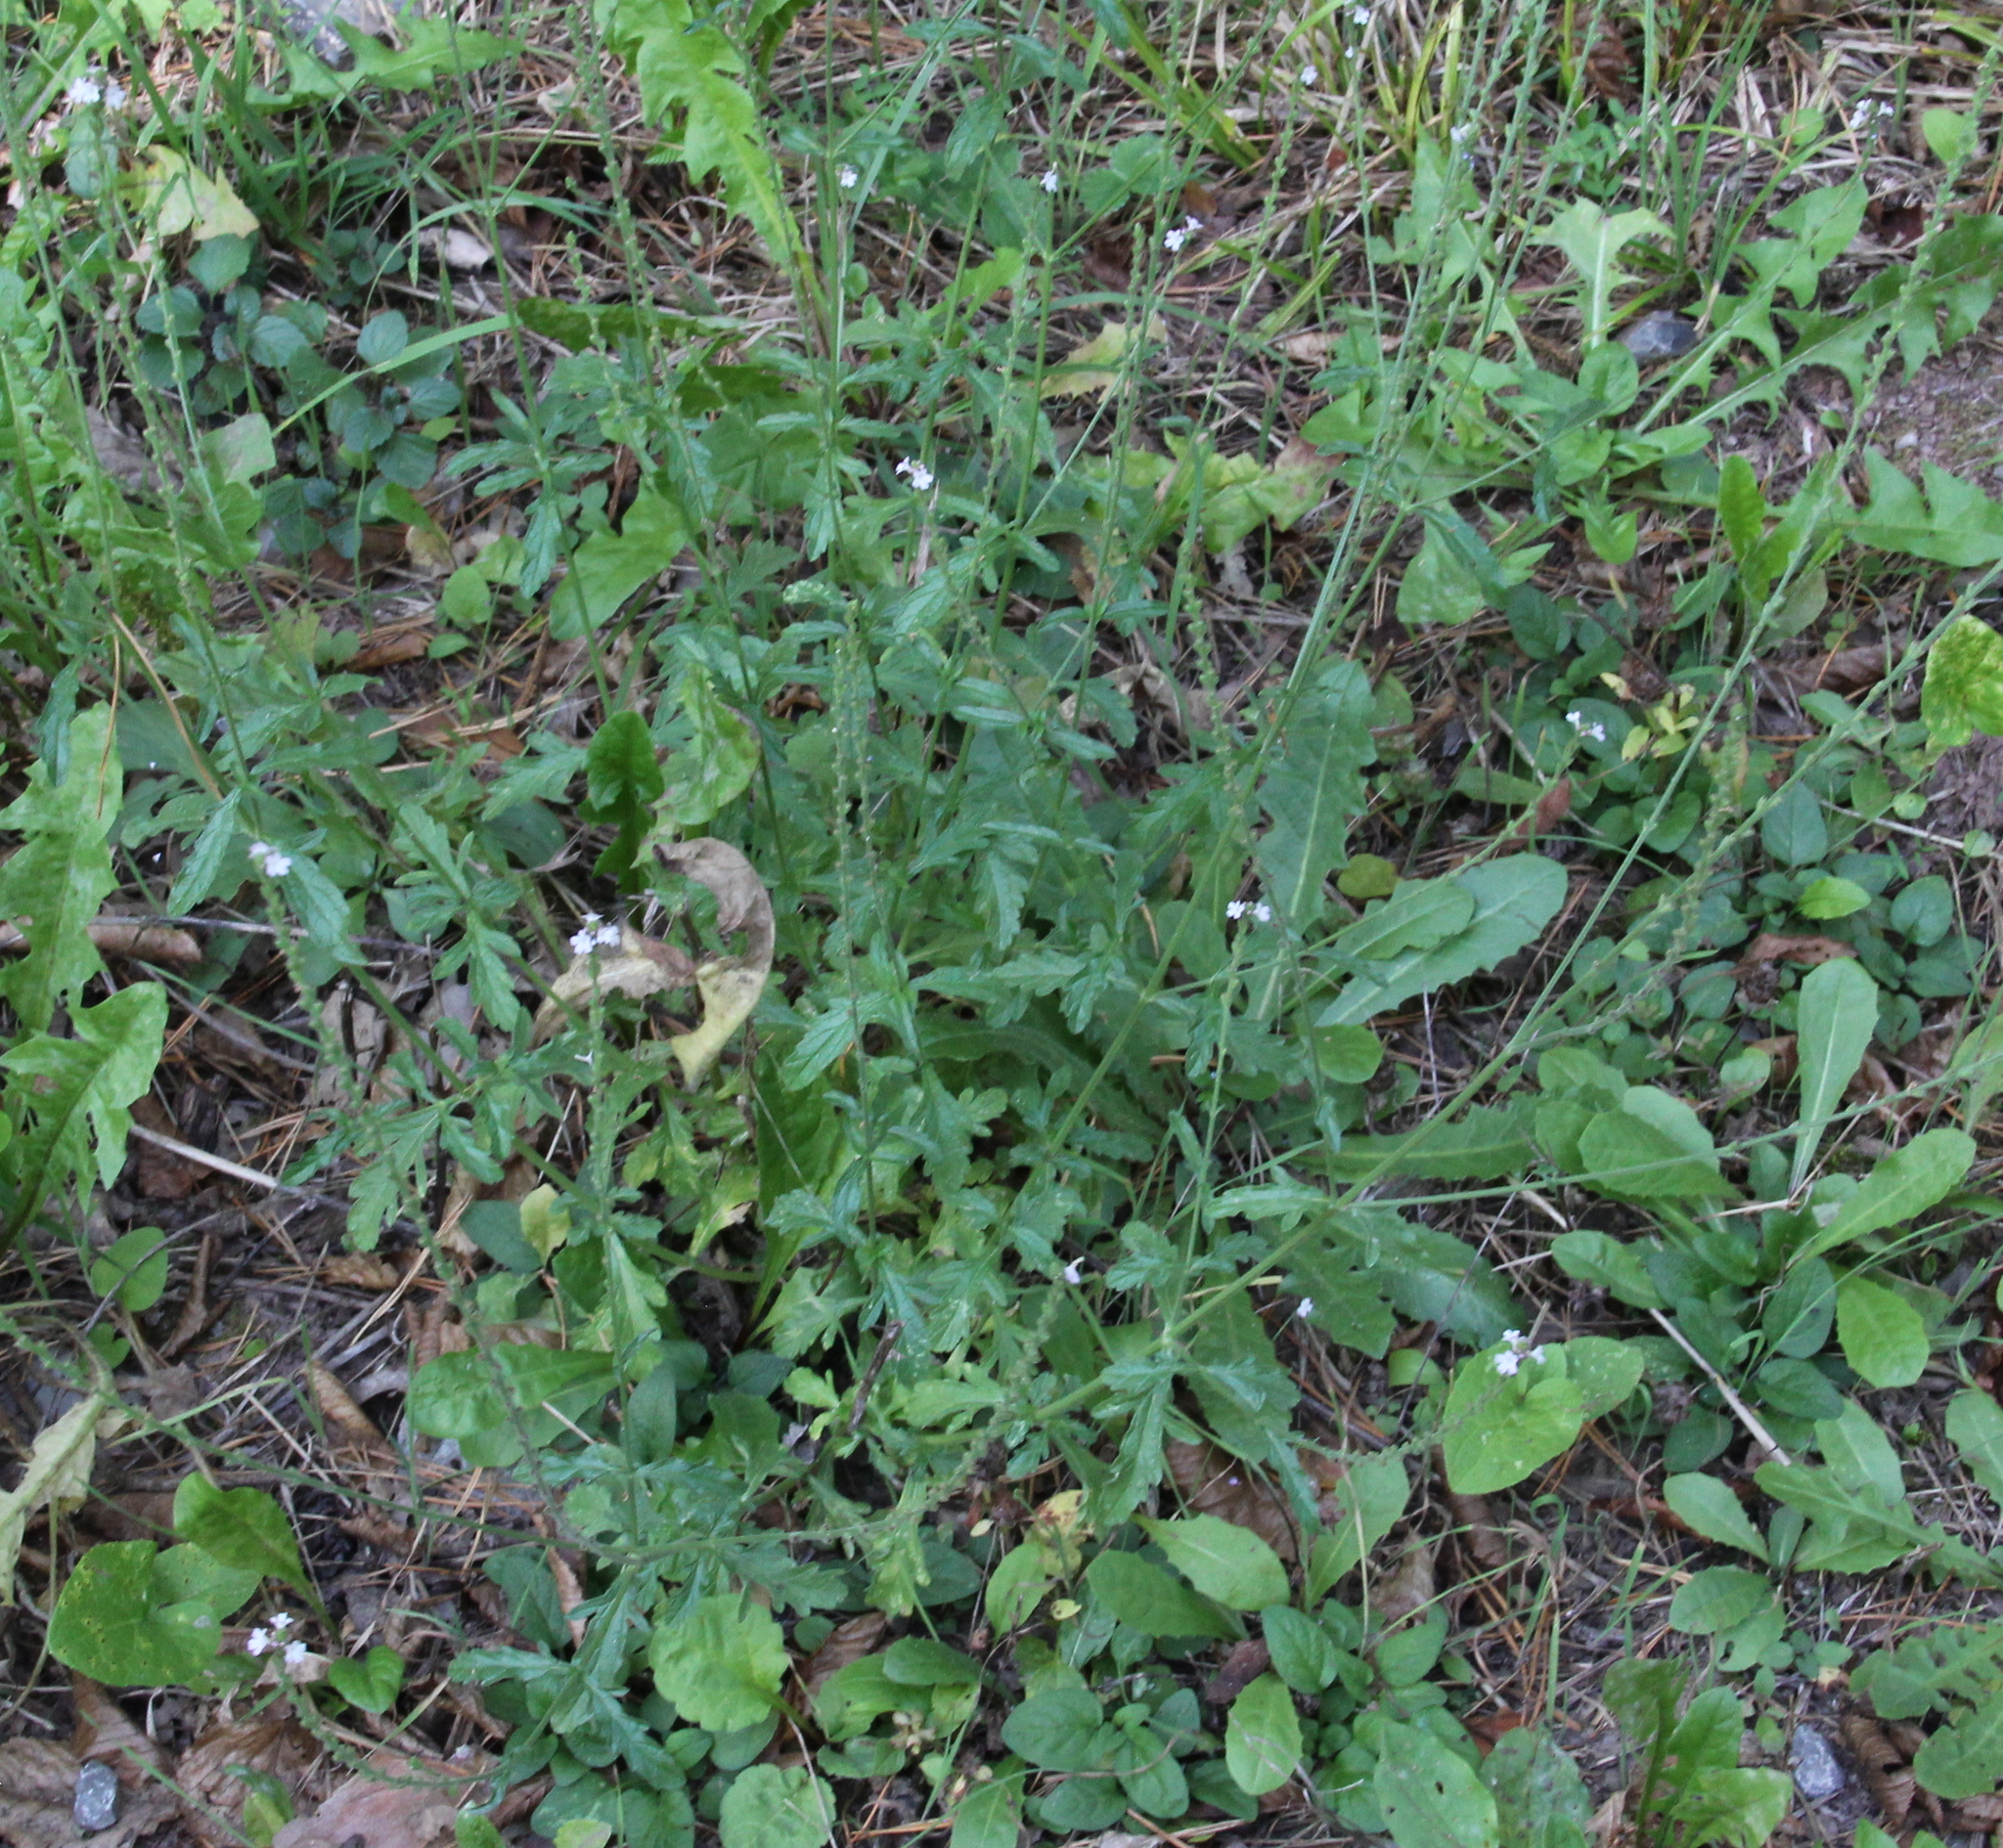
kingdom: Plantae
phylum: Tracheophyta
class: Magnoliopsida
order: Lamiales
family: Verbenaceae
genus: Verbena
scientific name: Verbena officinalis
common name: Vervain
